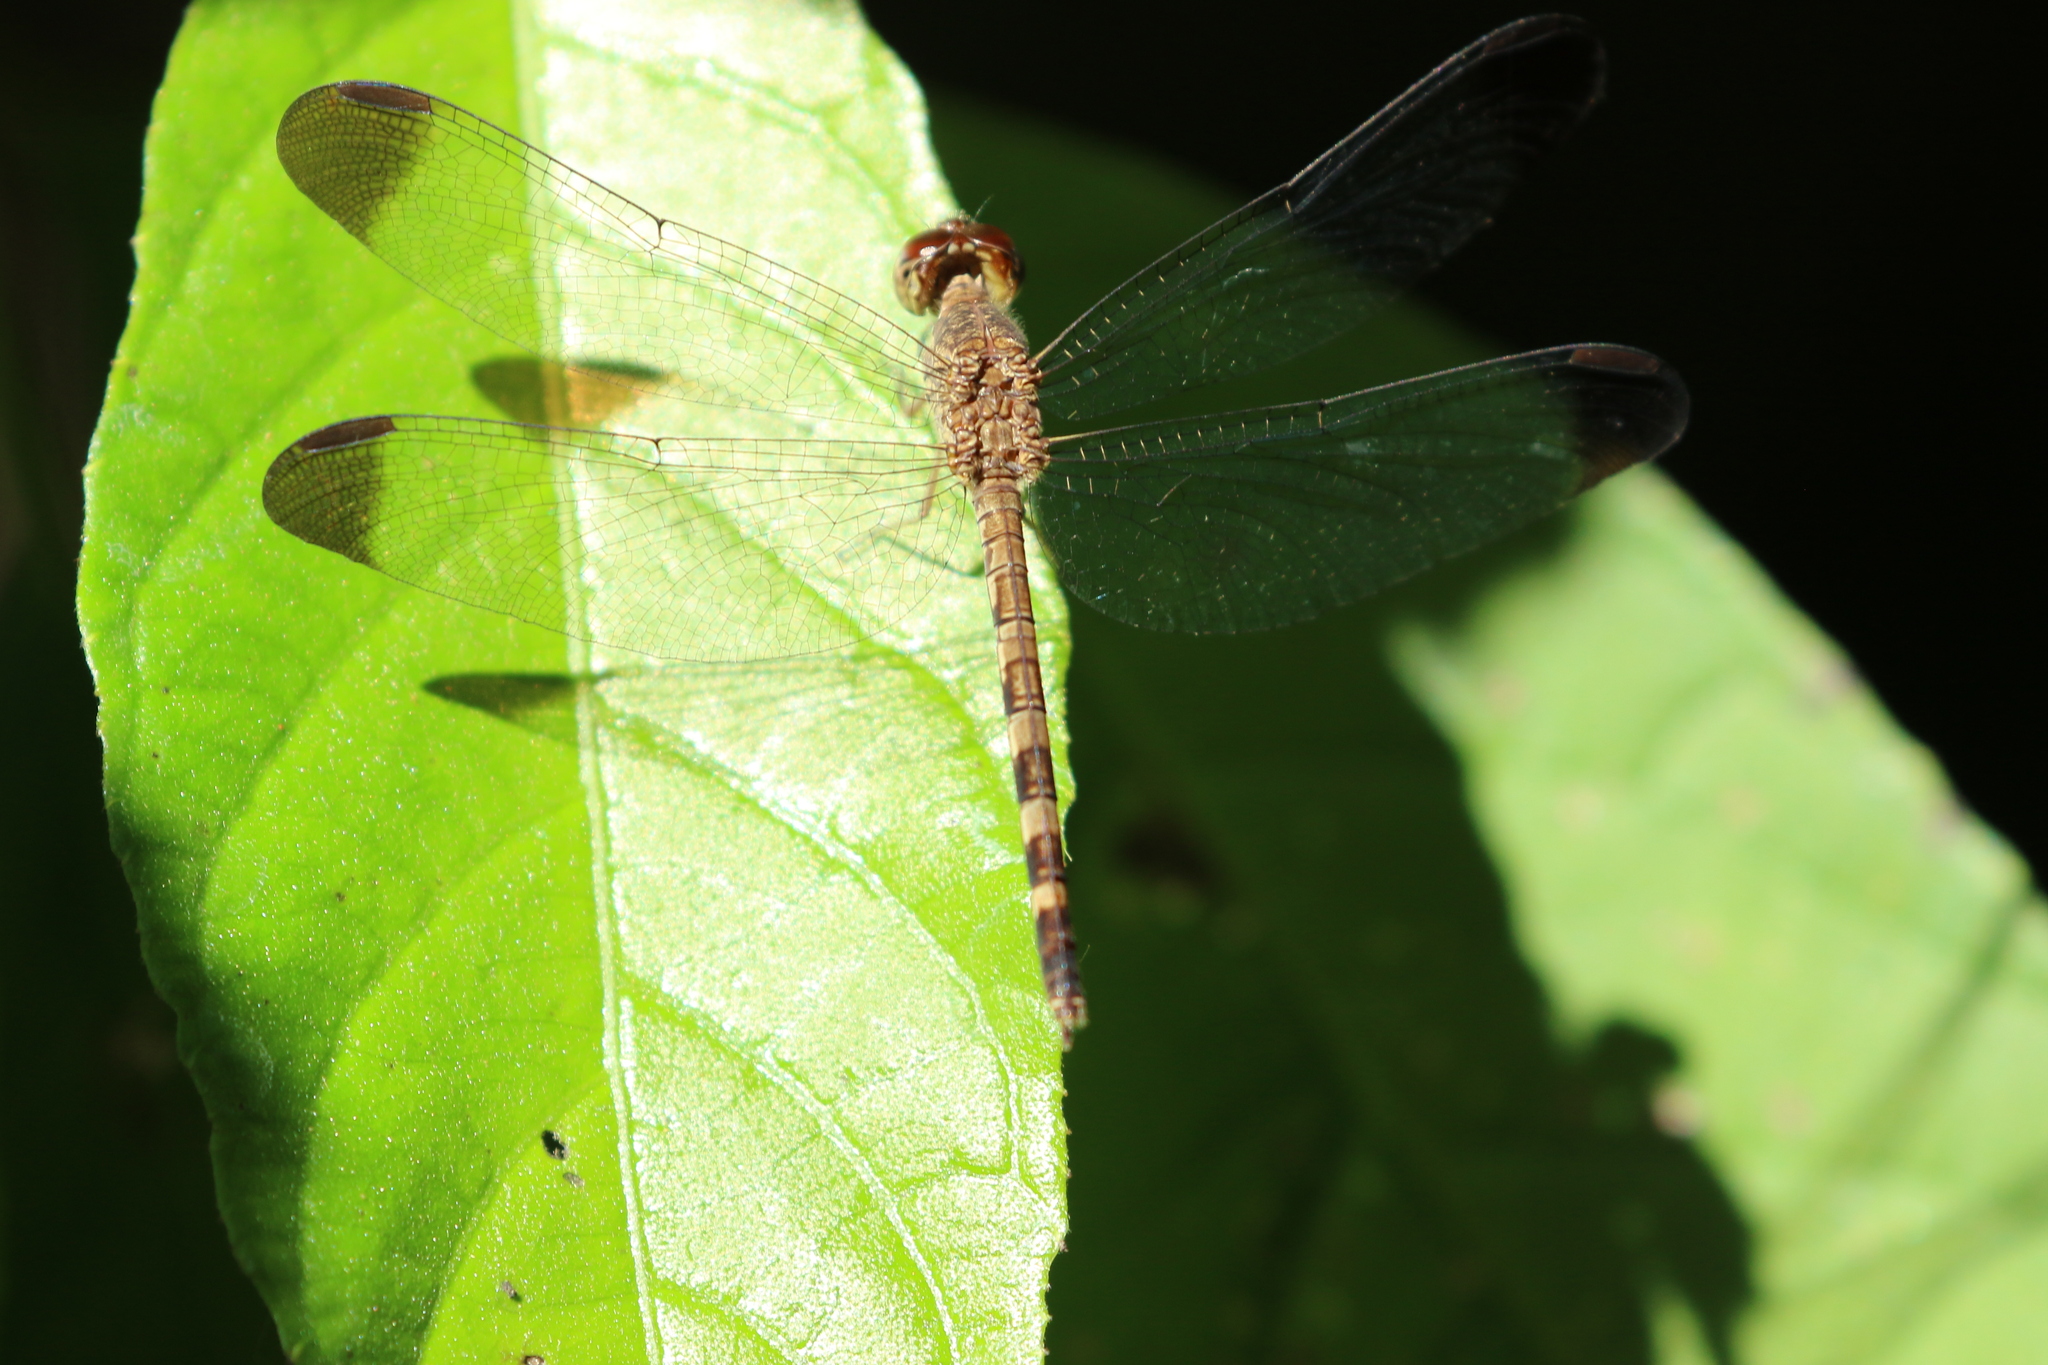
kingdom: Animalia
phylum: Arthropoda
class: Insecta
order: Odonata
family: Libellulidae
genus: Uracis
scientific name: Uracis imbuta
